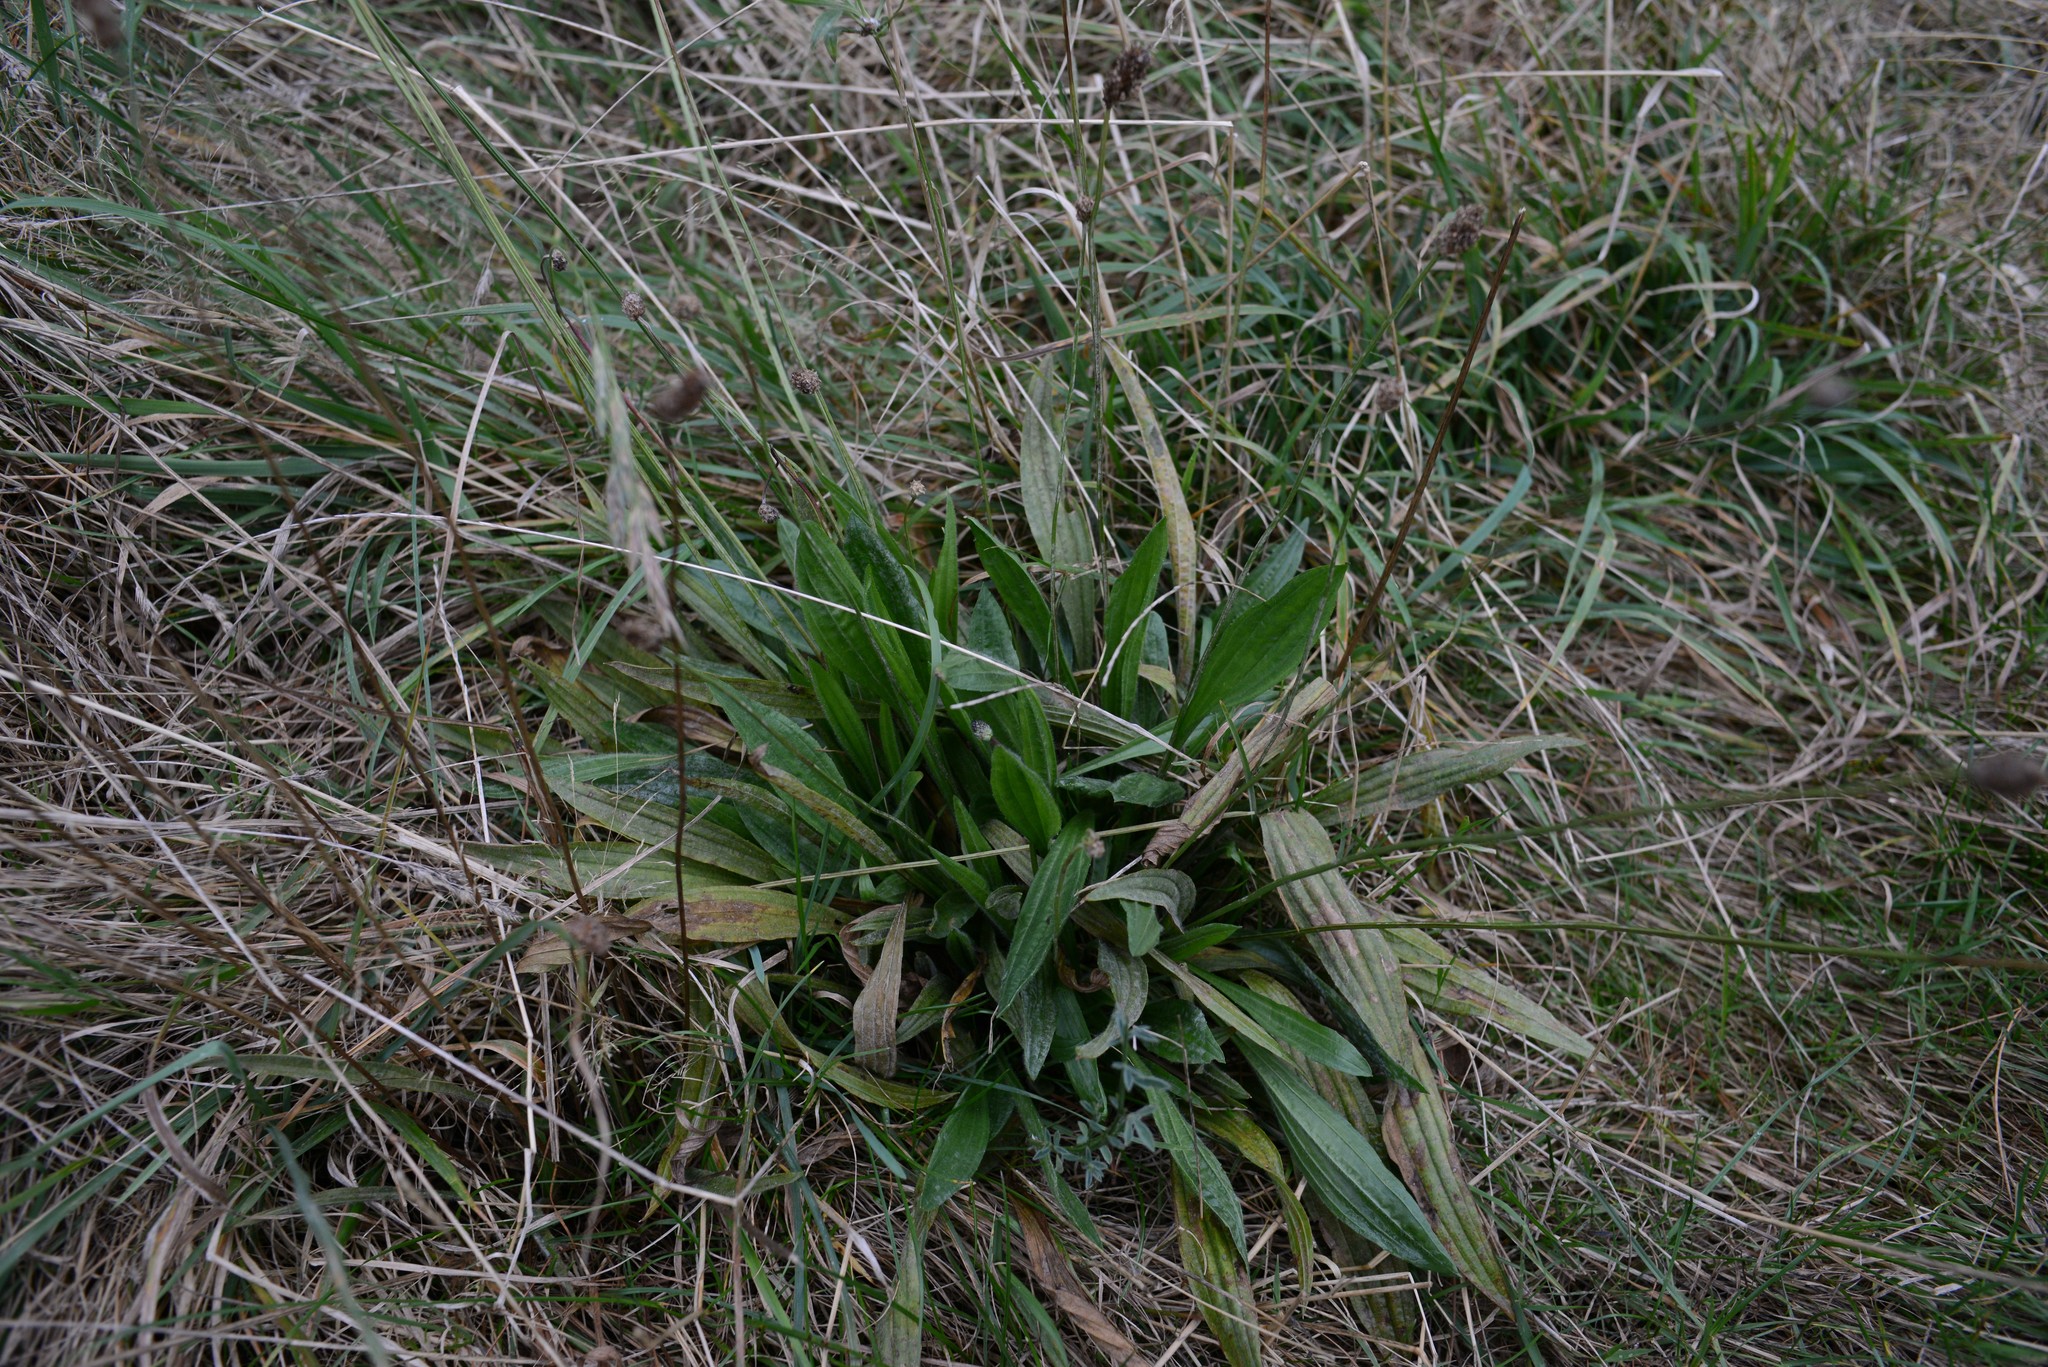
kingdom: Plantae
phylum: Tracheophyta
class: Magnoliopsida
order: Lamiales
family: Plantaginaceae
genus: Plantago
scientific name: Plantago lanceolata
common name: Ribwort plantain
